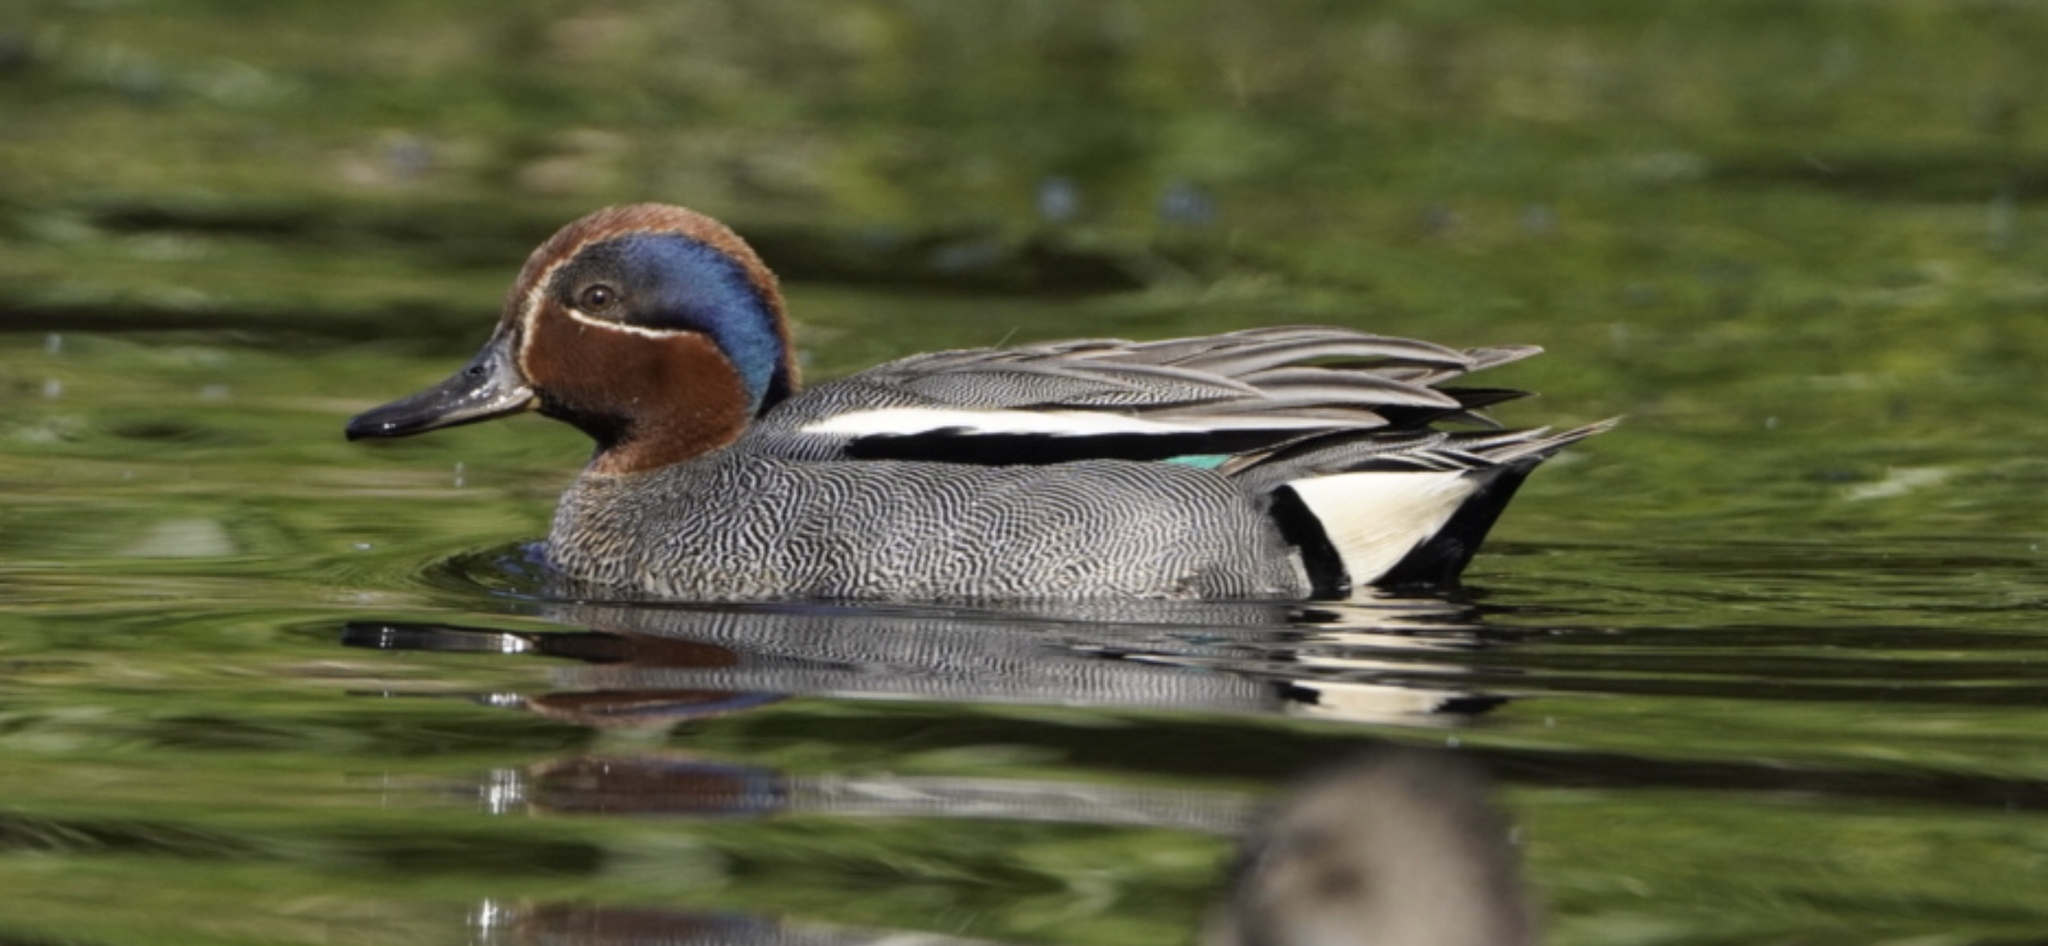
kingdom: Animalia
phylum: Chordata
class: Aves
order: Anseriformes
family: Anatidae
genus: Anas
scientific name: Anas crecca
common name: Eurasian teal
